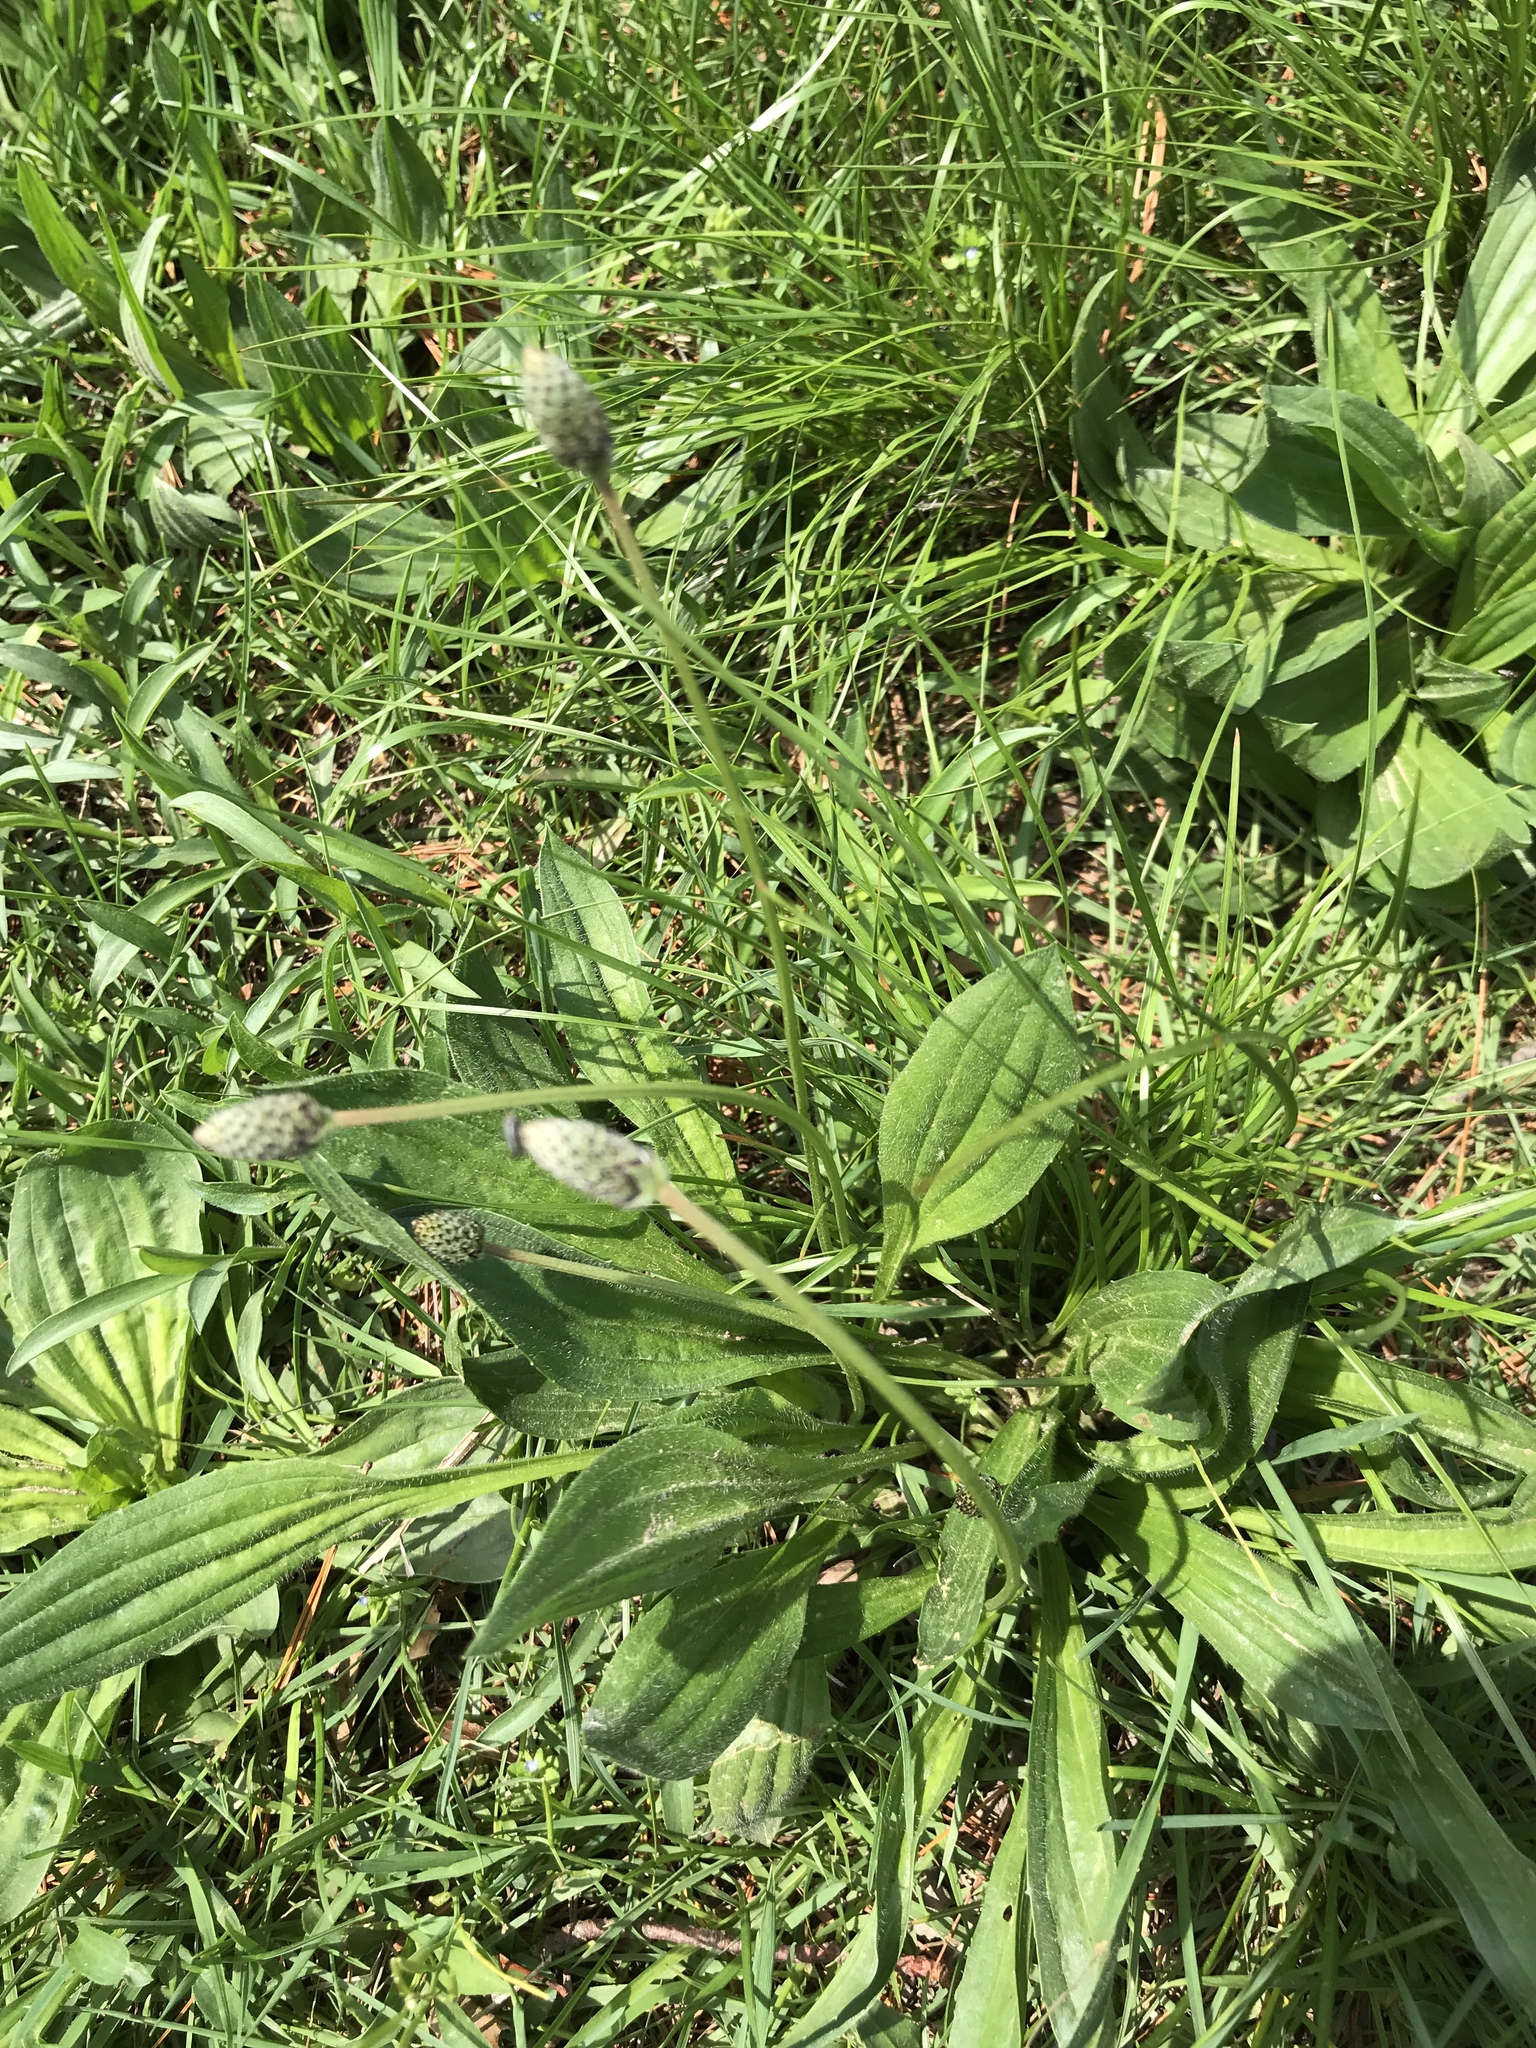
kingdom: Plantae
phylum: Tracheophyta
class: Magnoliopsida
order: Lamiales
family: Plantaginaceae
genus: Plantago
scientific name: Plantago lanceolata
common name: Ribwort plantain
